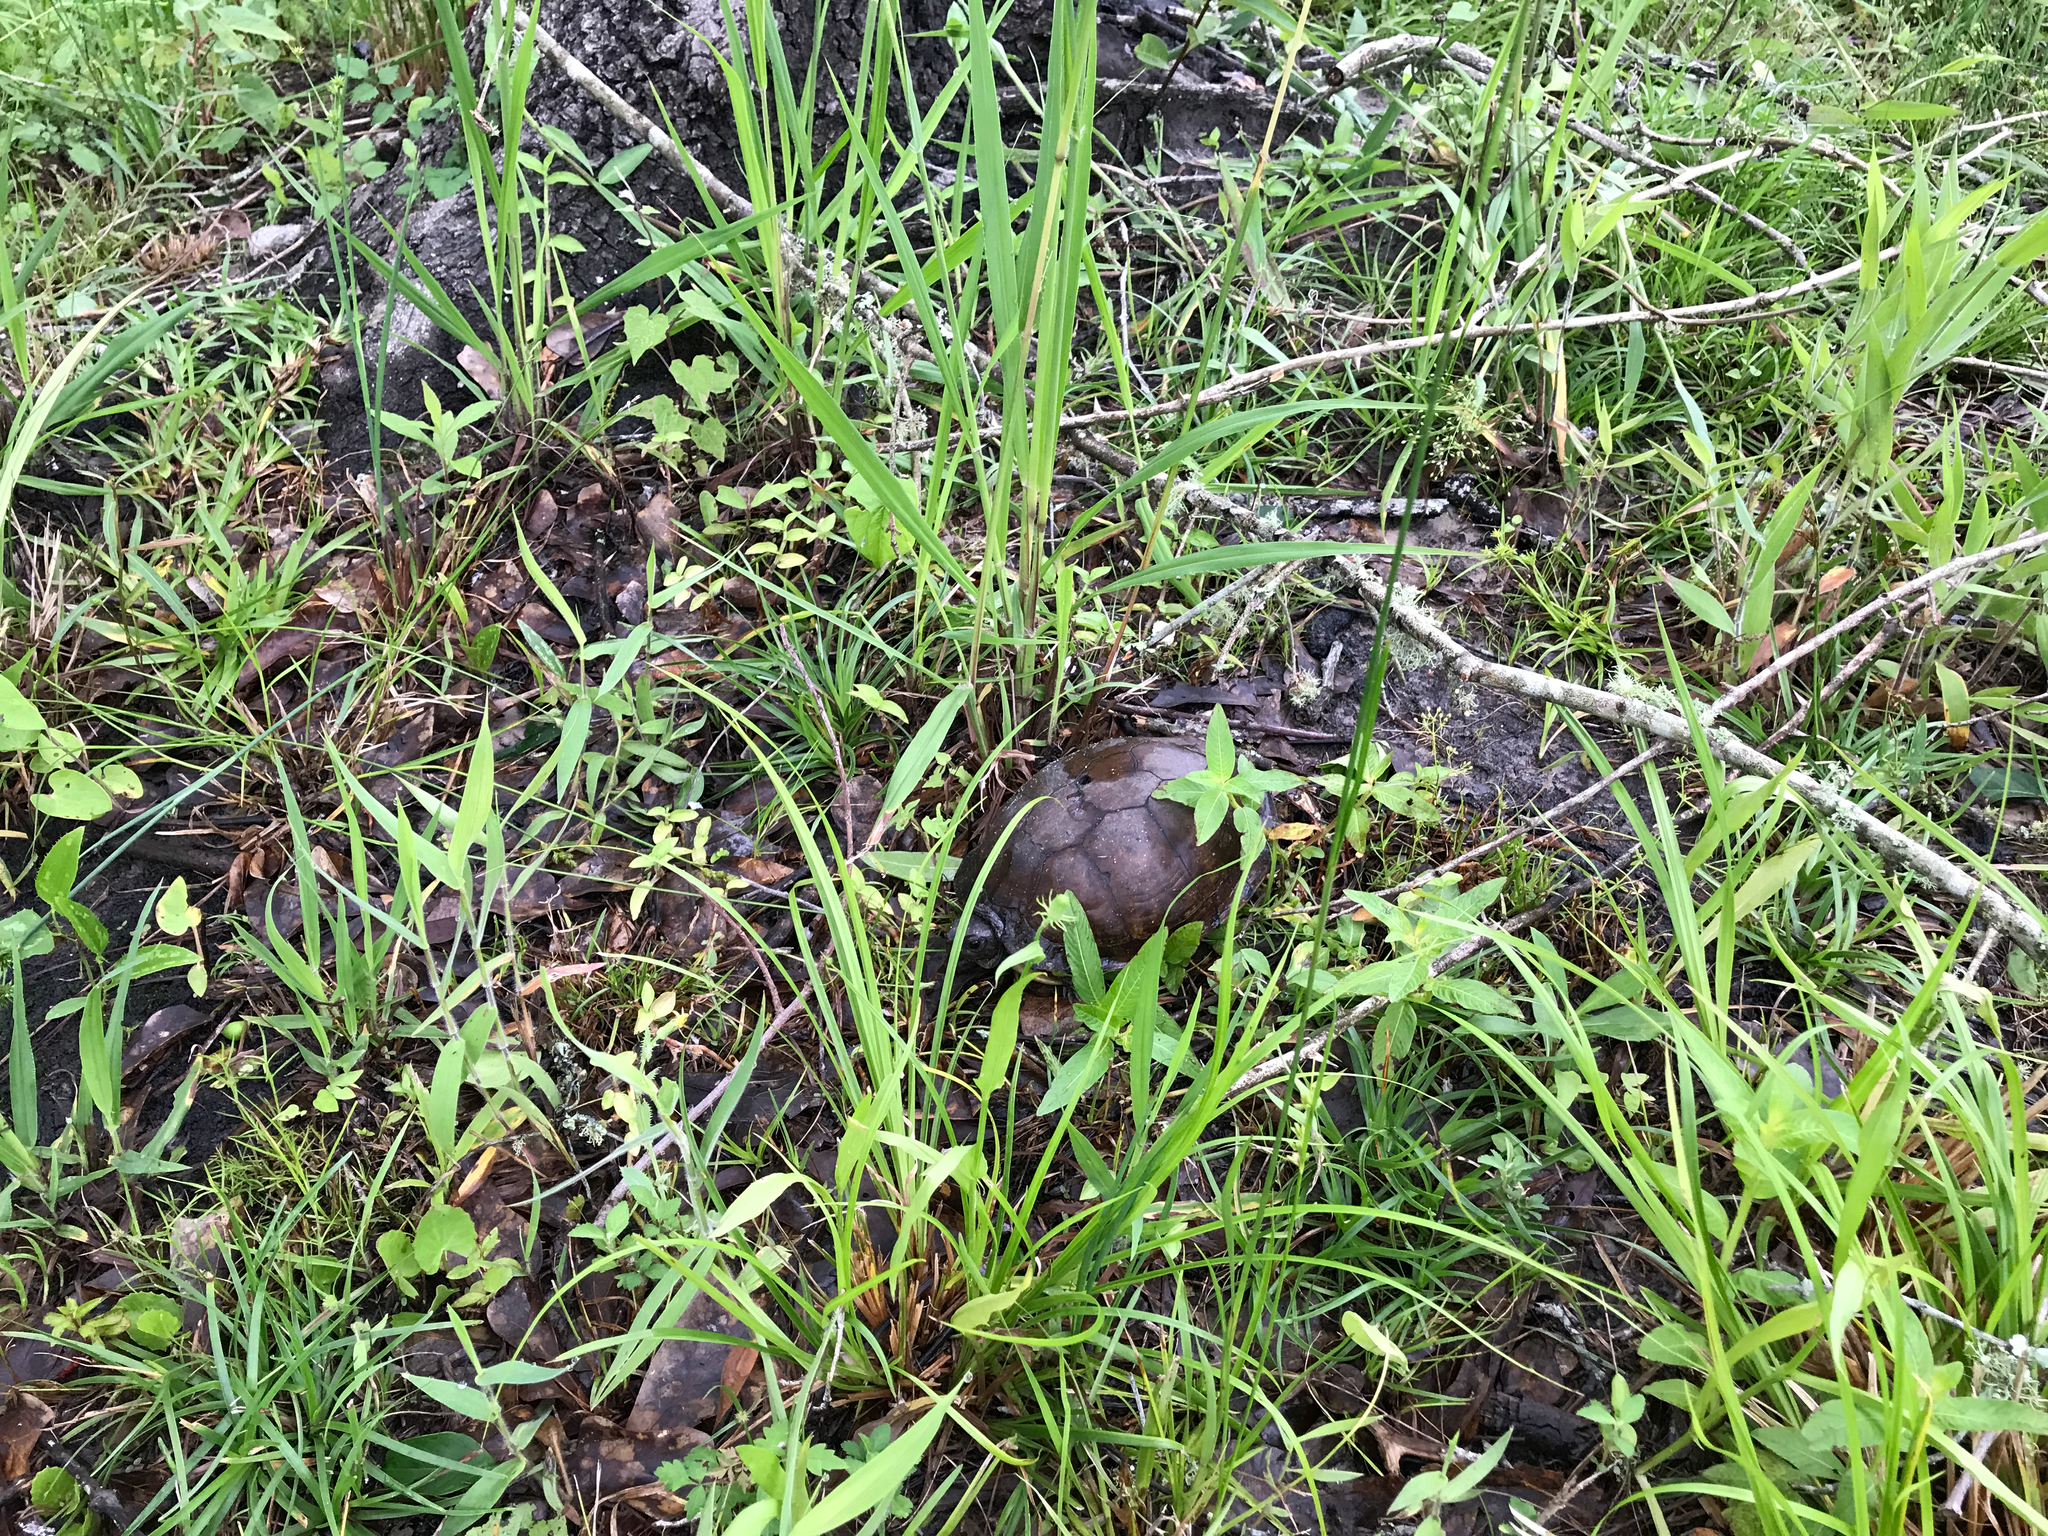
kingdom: Animalia
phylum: Chordata
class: Testudines
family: Emydidae
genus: Terrapene
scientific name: Terrapene carolina
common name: Common box turtle
